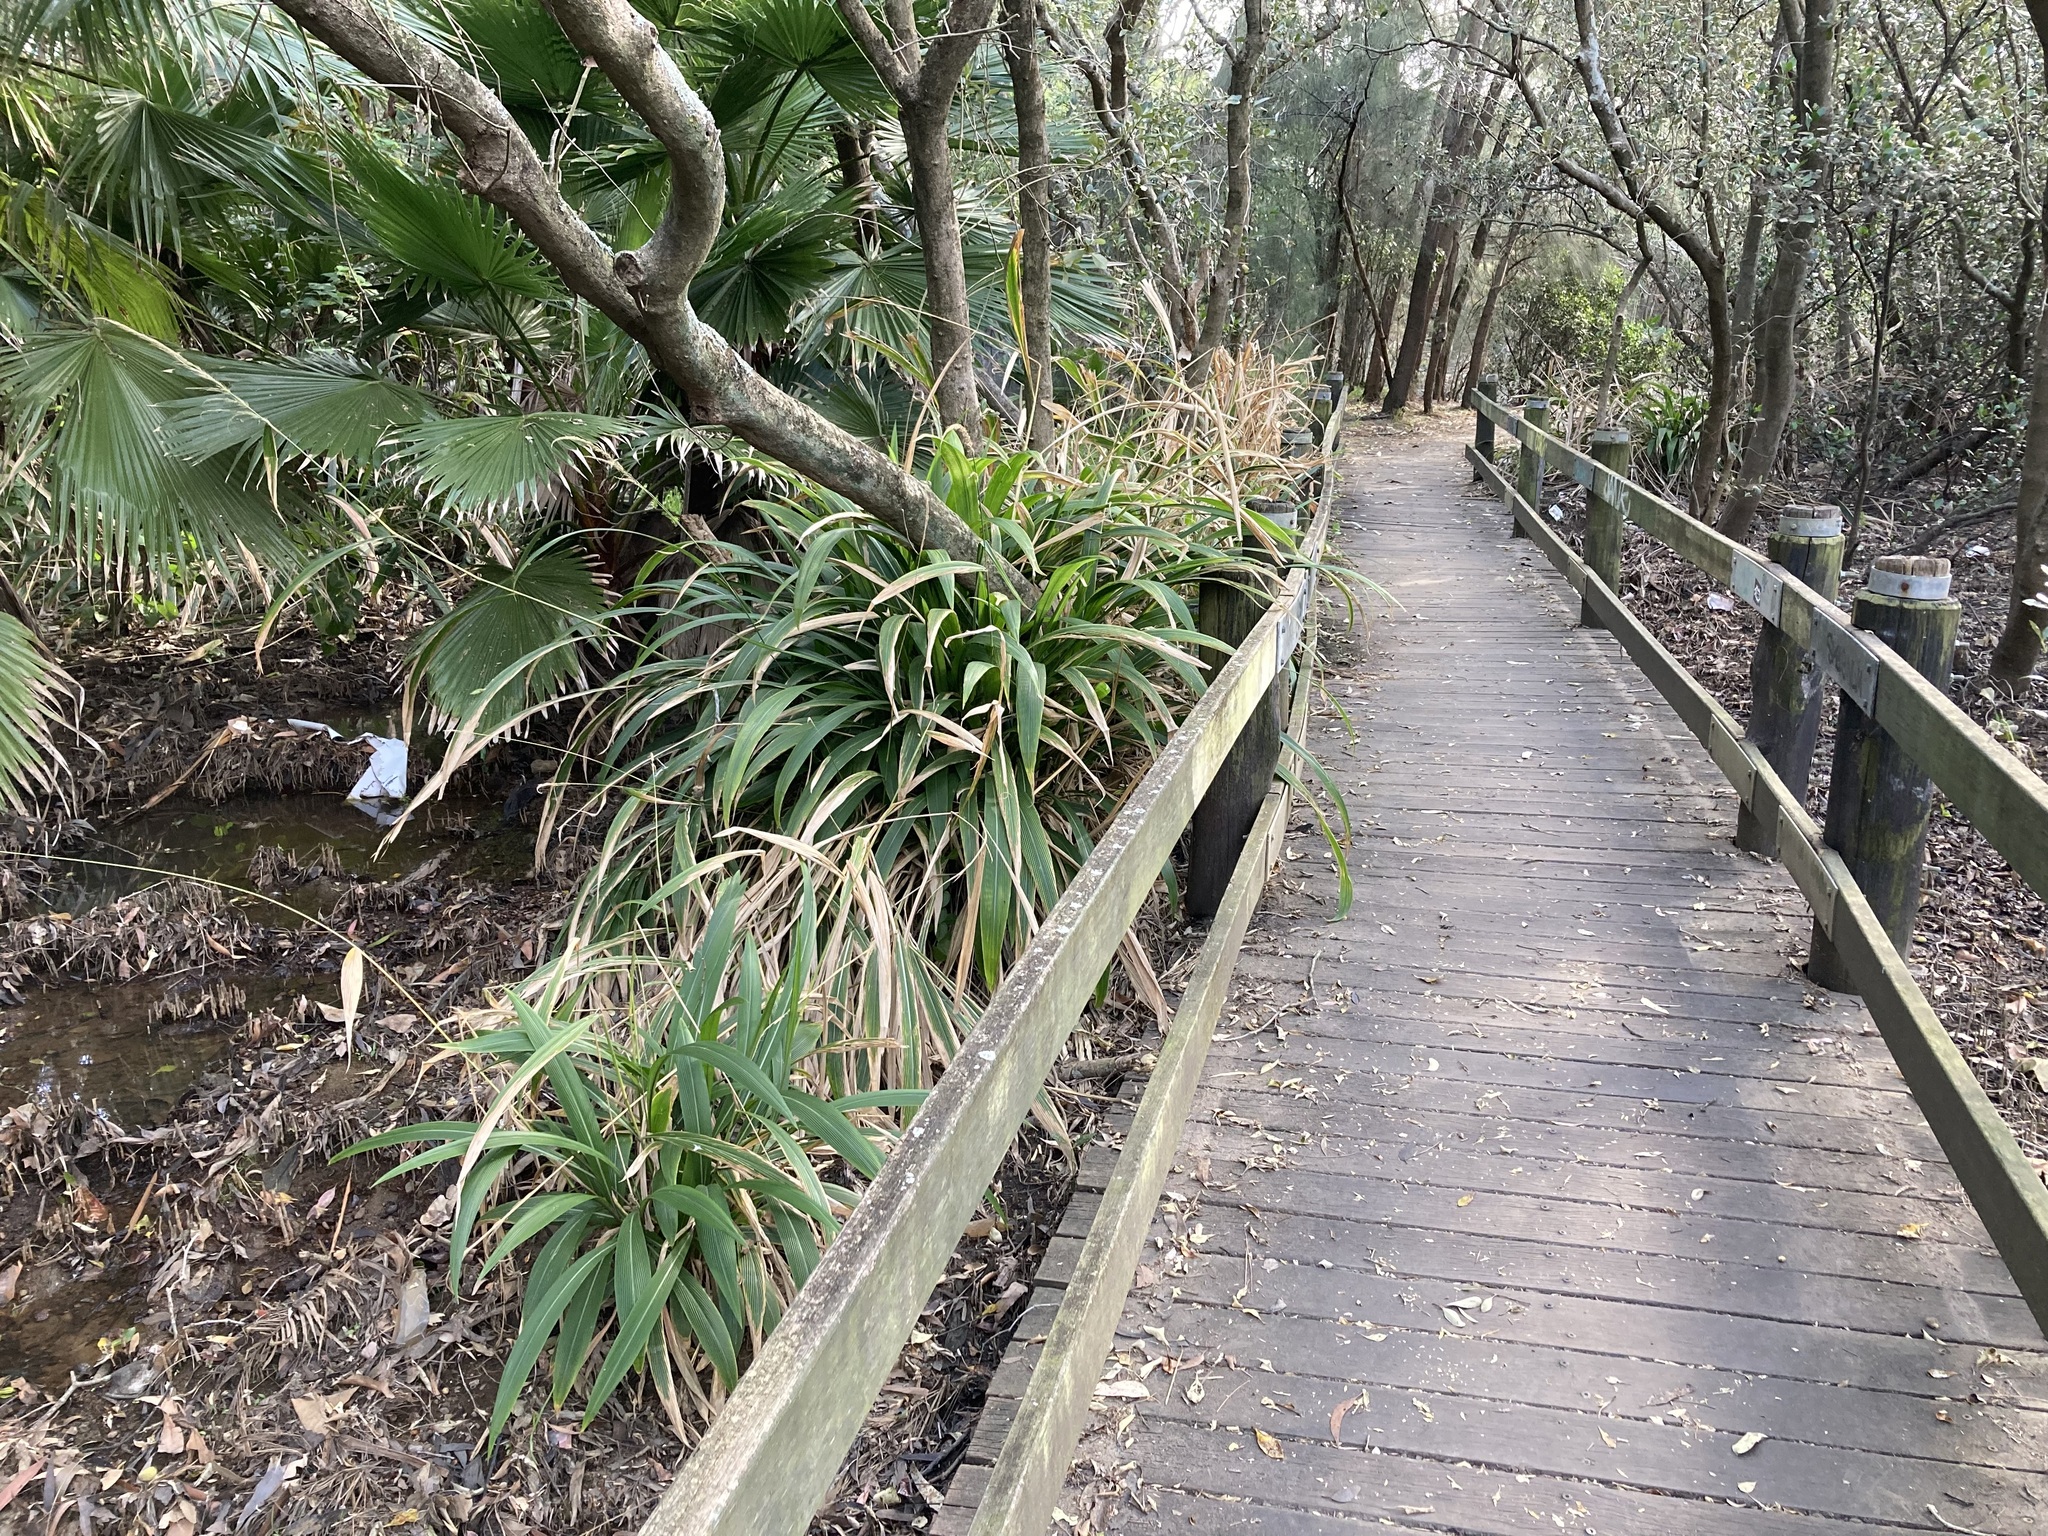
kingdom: Plantae
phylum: Tracheophyta
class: Liliopsida
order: Poales
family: Poaceae
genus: Setaria
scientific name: Setaria palmifolia
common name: Broadleaved bristlegrass
